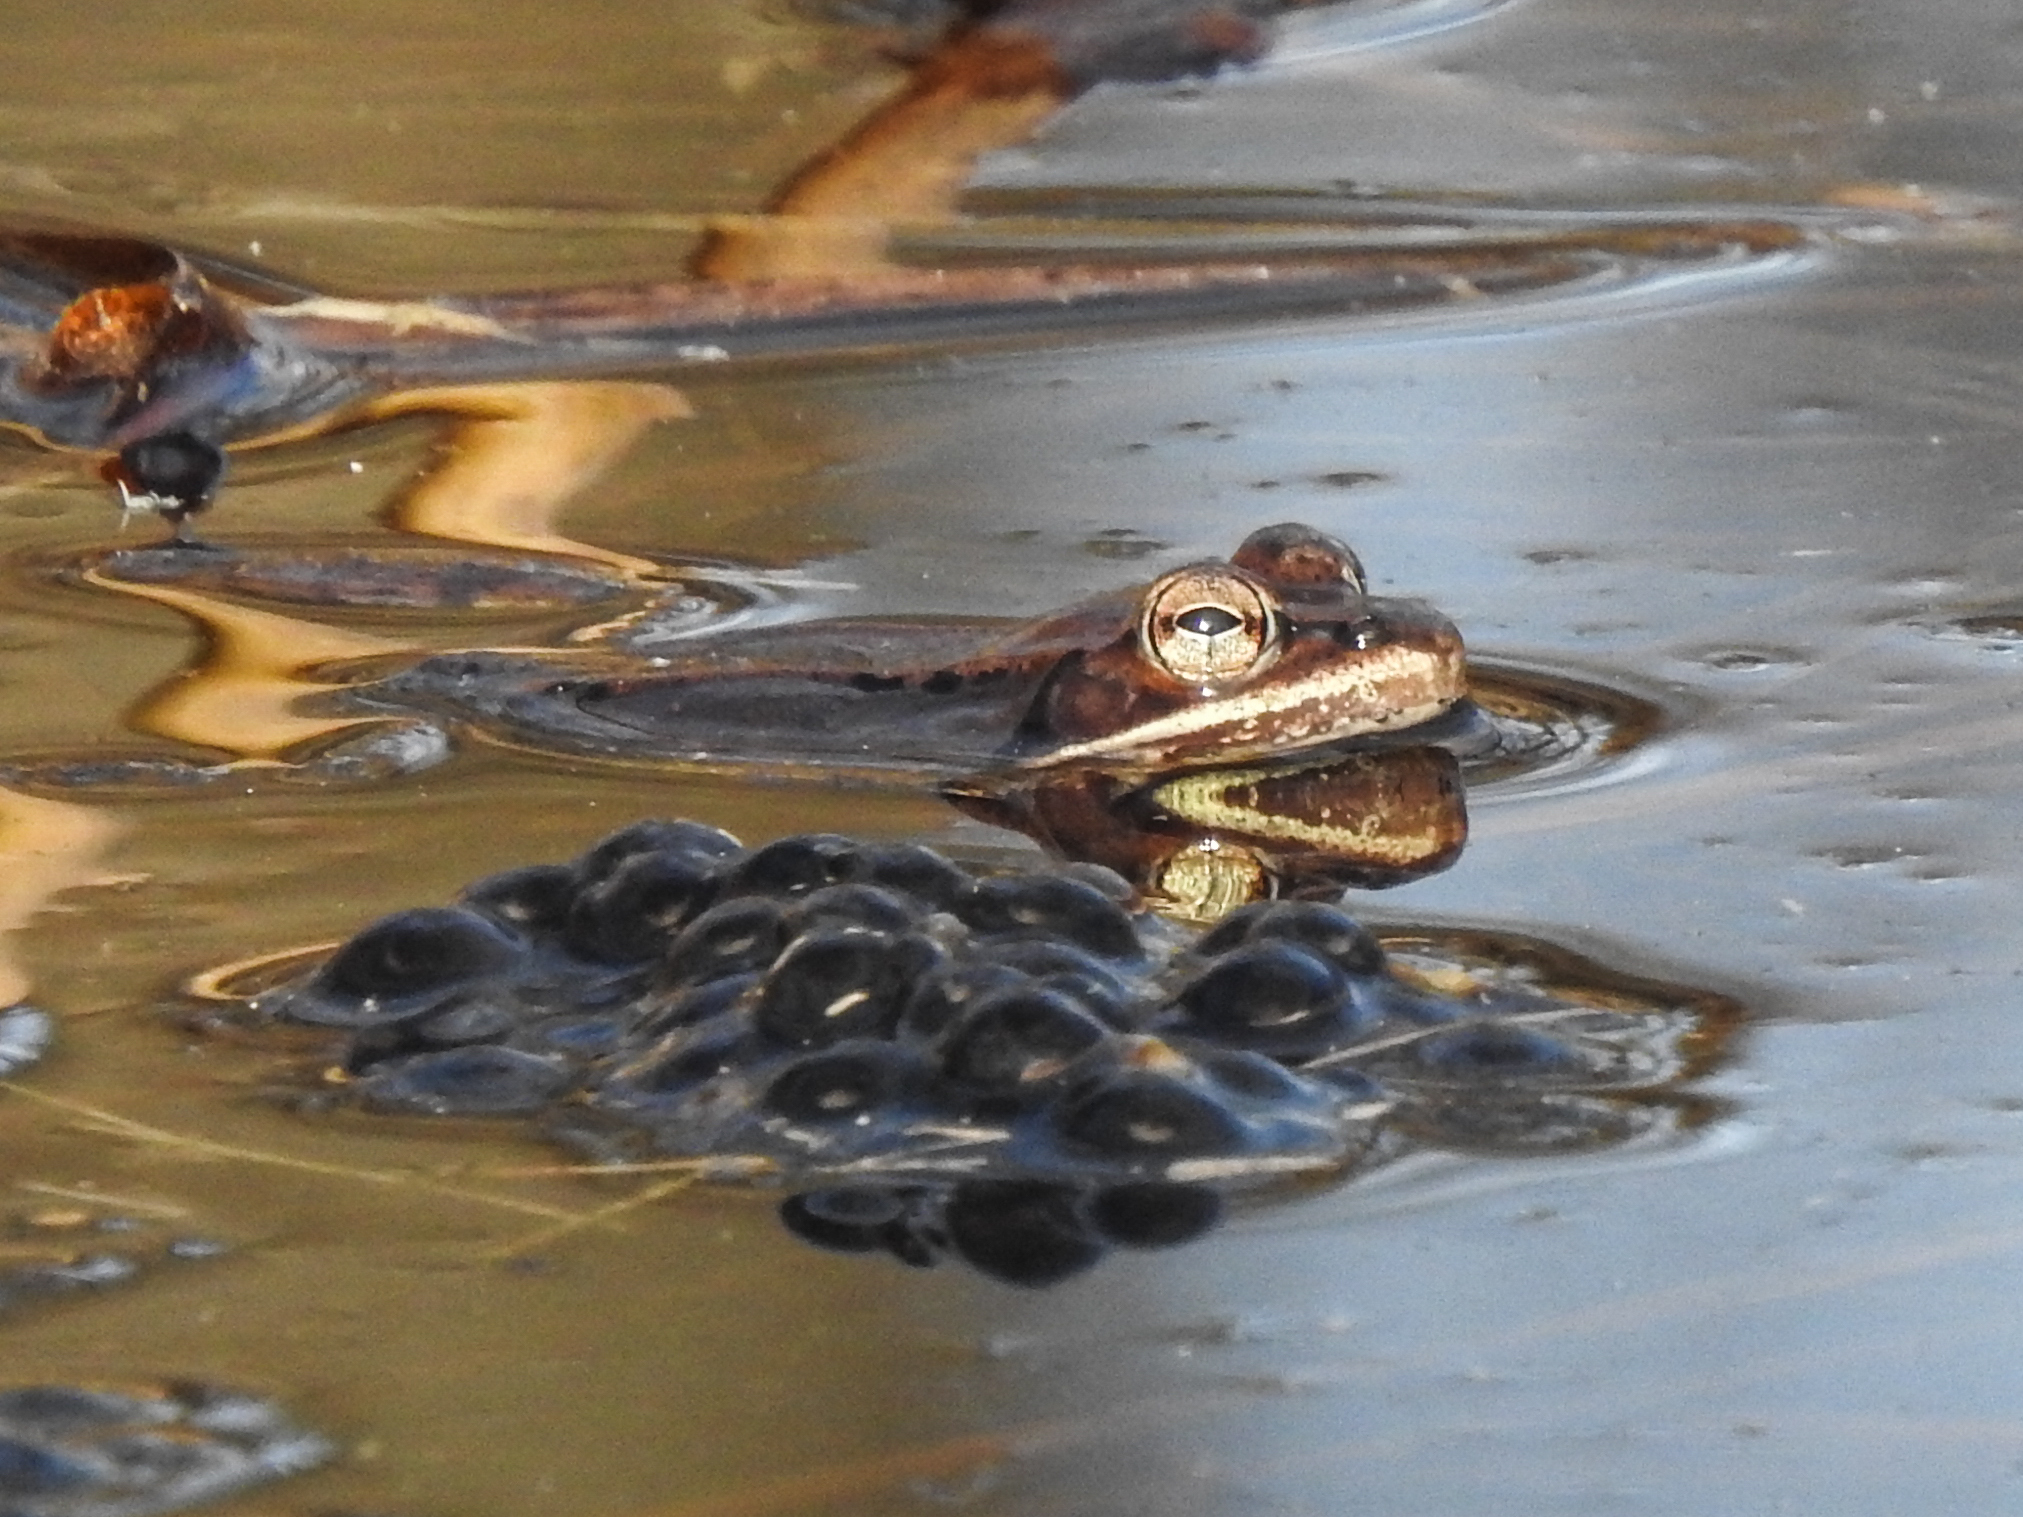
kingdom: Animalia
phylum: Chordata
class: Amphibia
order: Anura
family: Ranidae
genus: Lithobates
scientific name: Lithobates sylvaticus
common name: Wood frog
